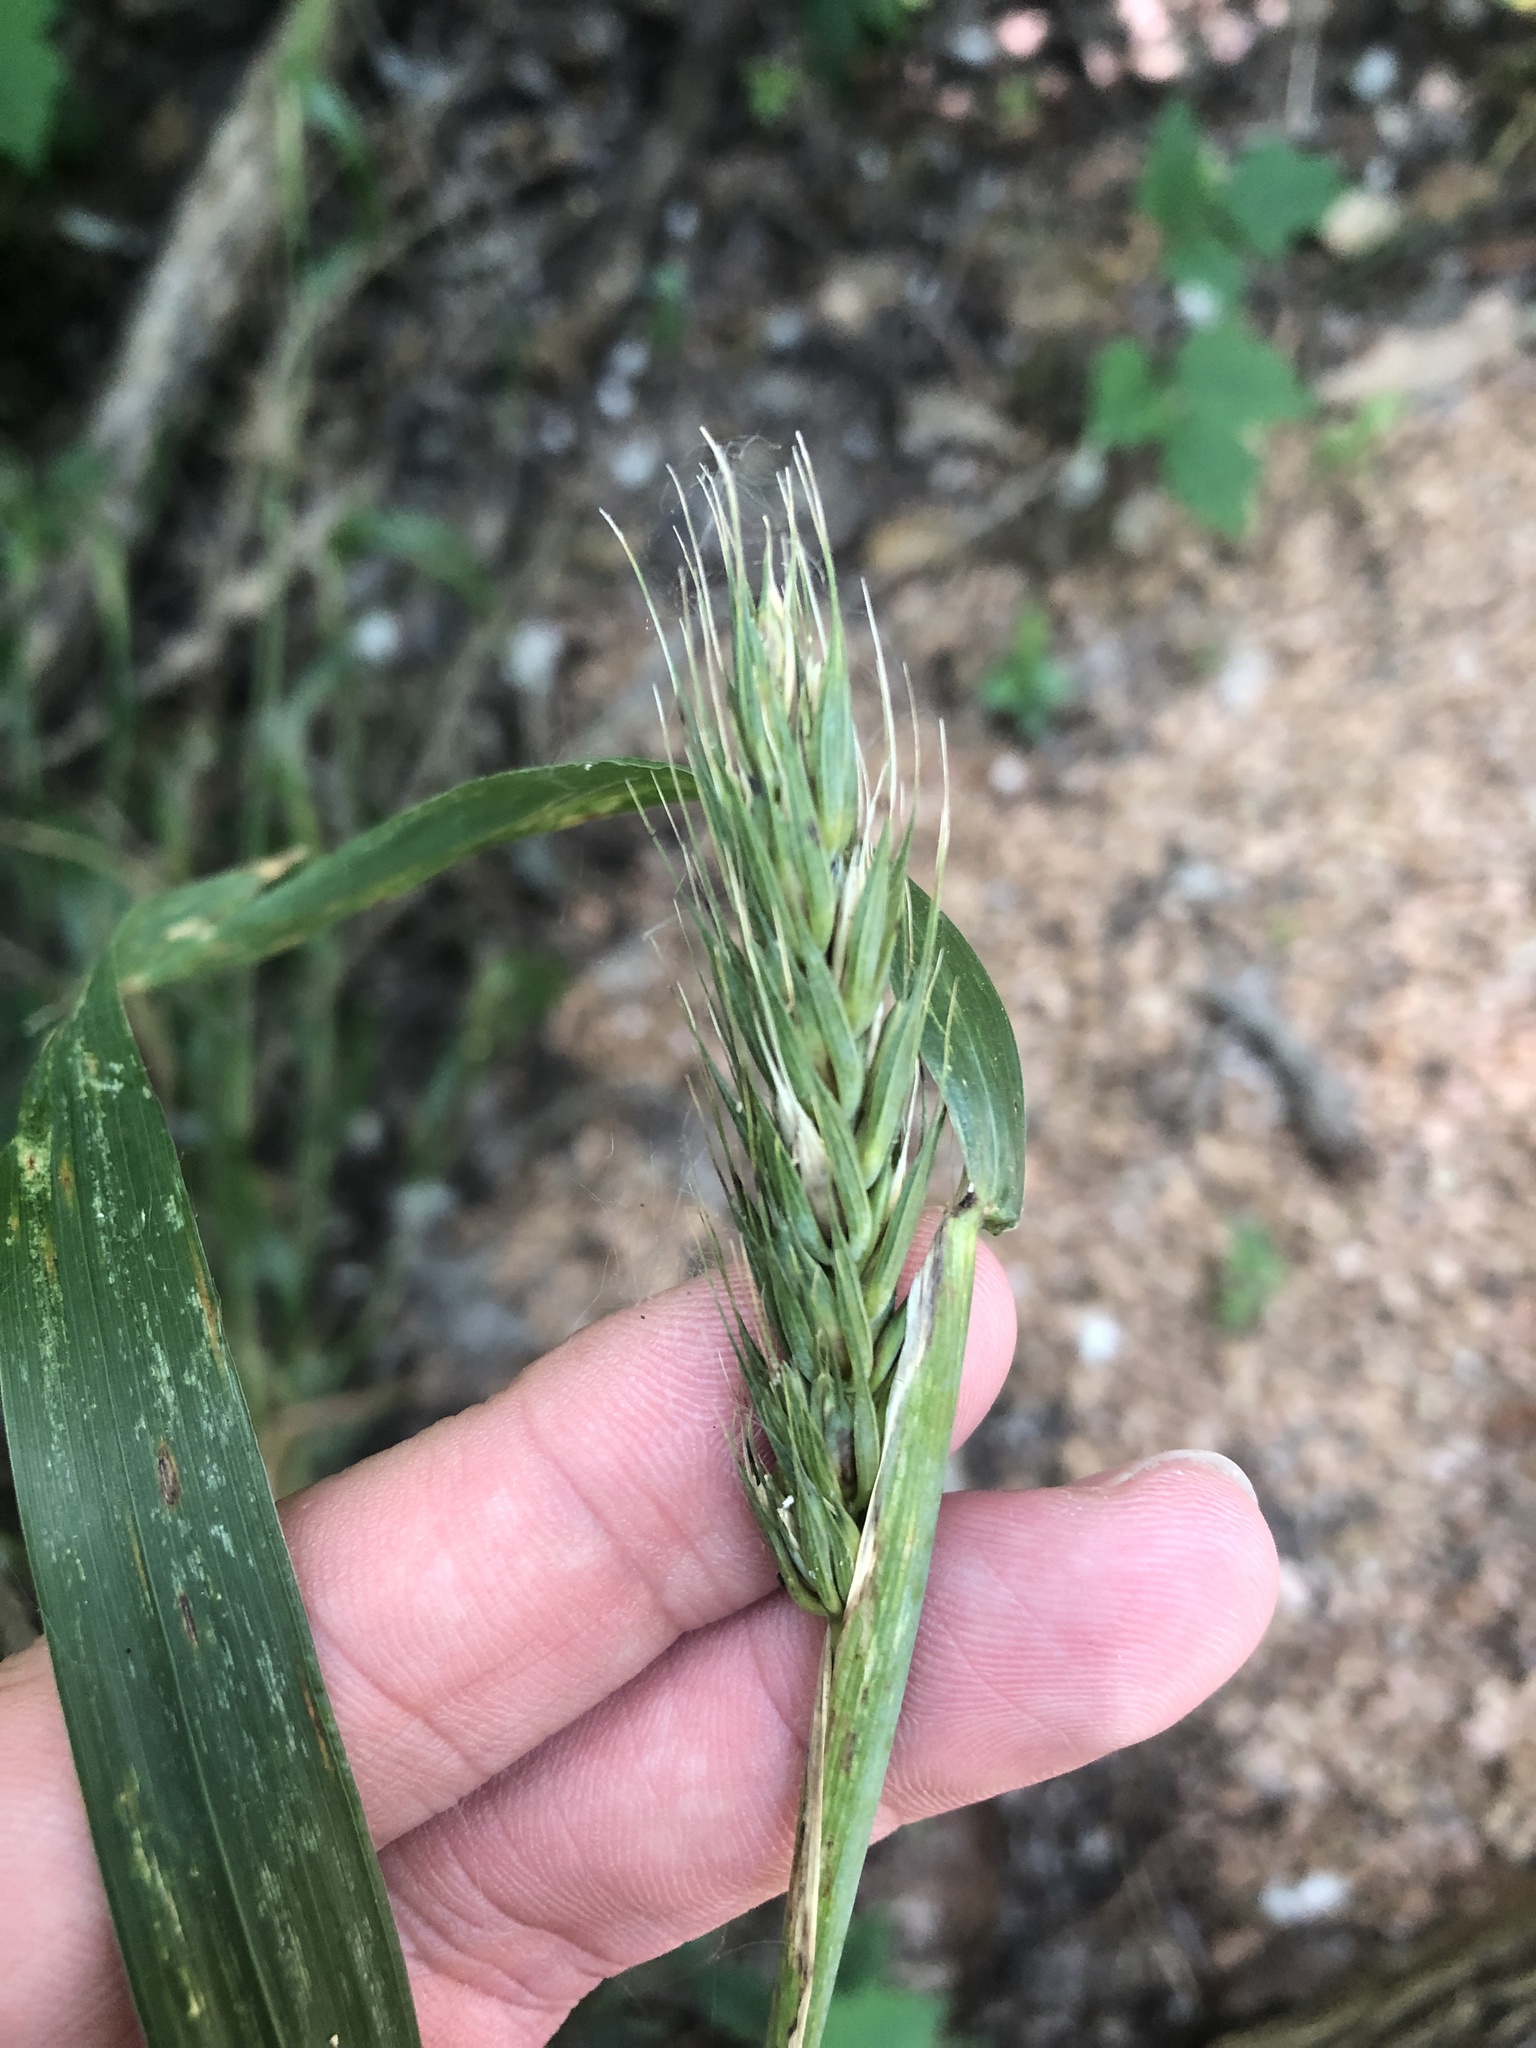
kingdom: Plantae
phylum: Tracheophyta
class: Liliopsida
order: Poales
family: Poaceae
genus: Elymus
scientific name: Elymus virginicus
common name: Common eastern wildrye
